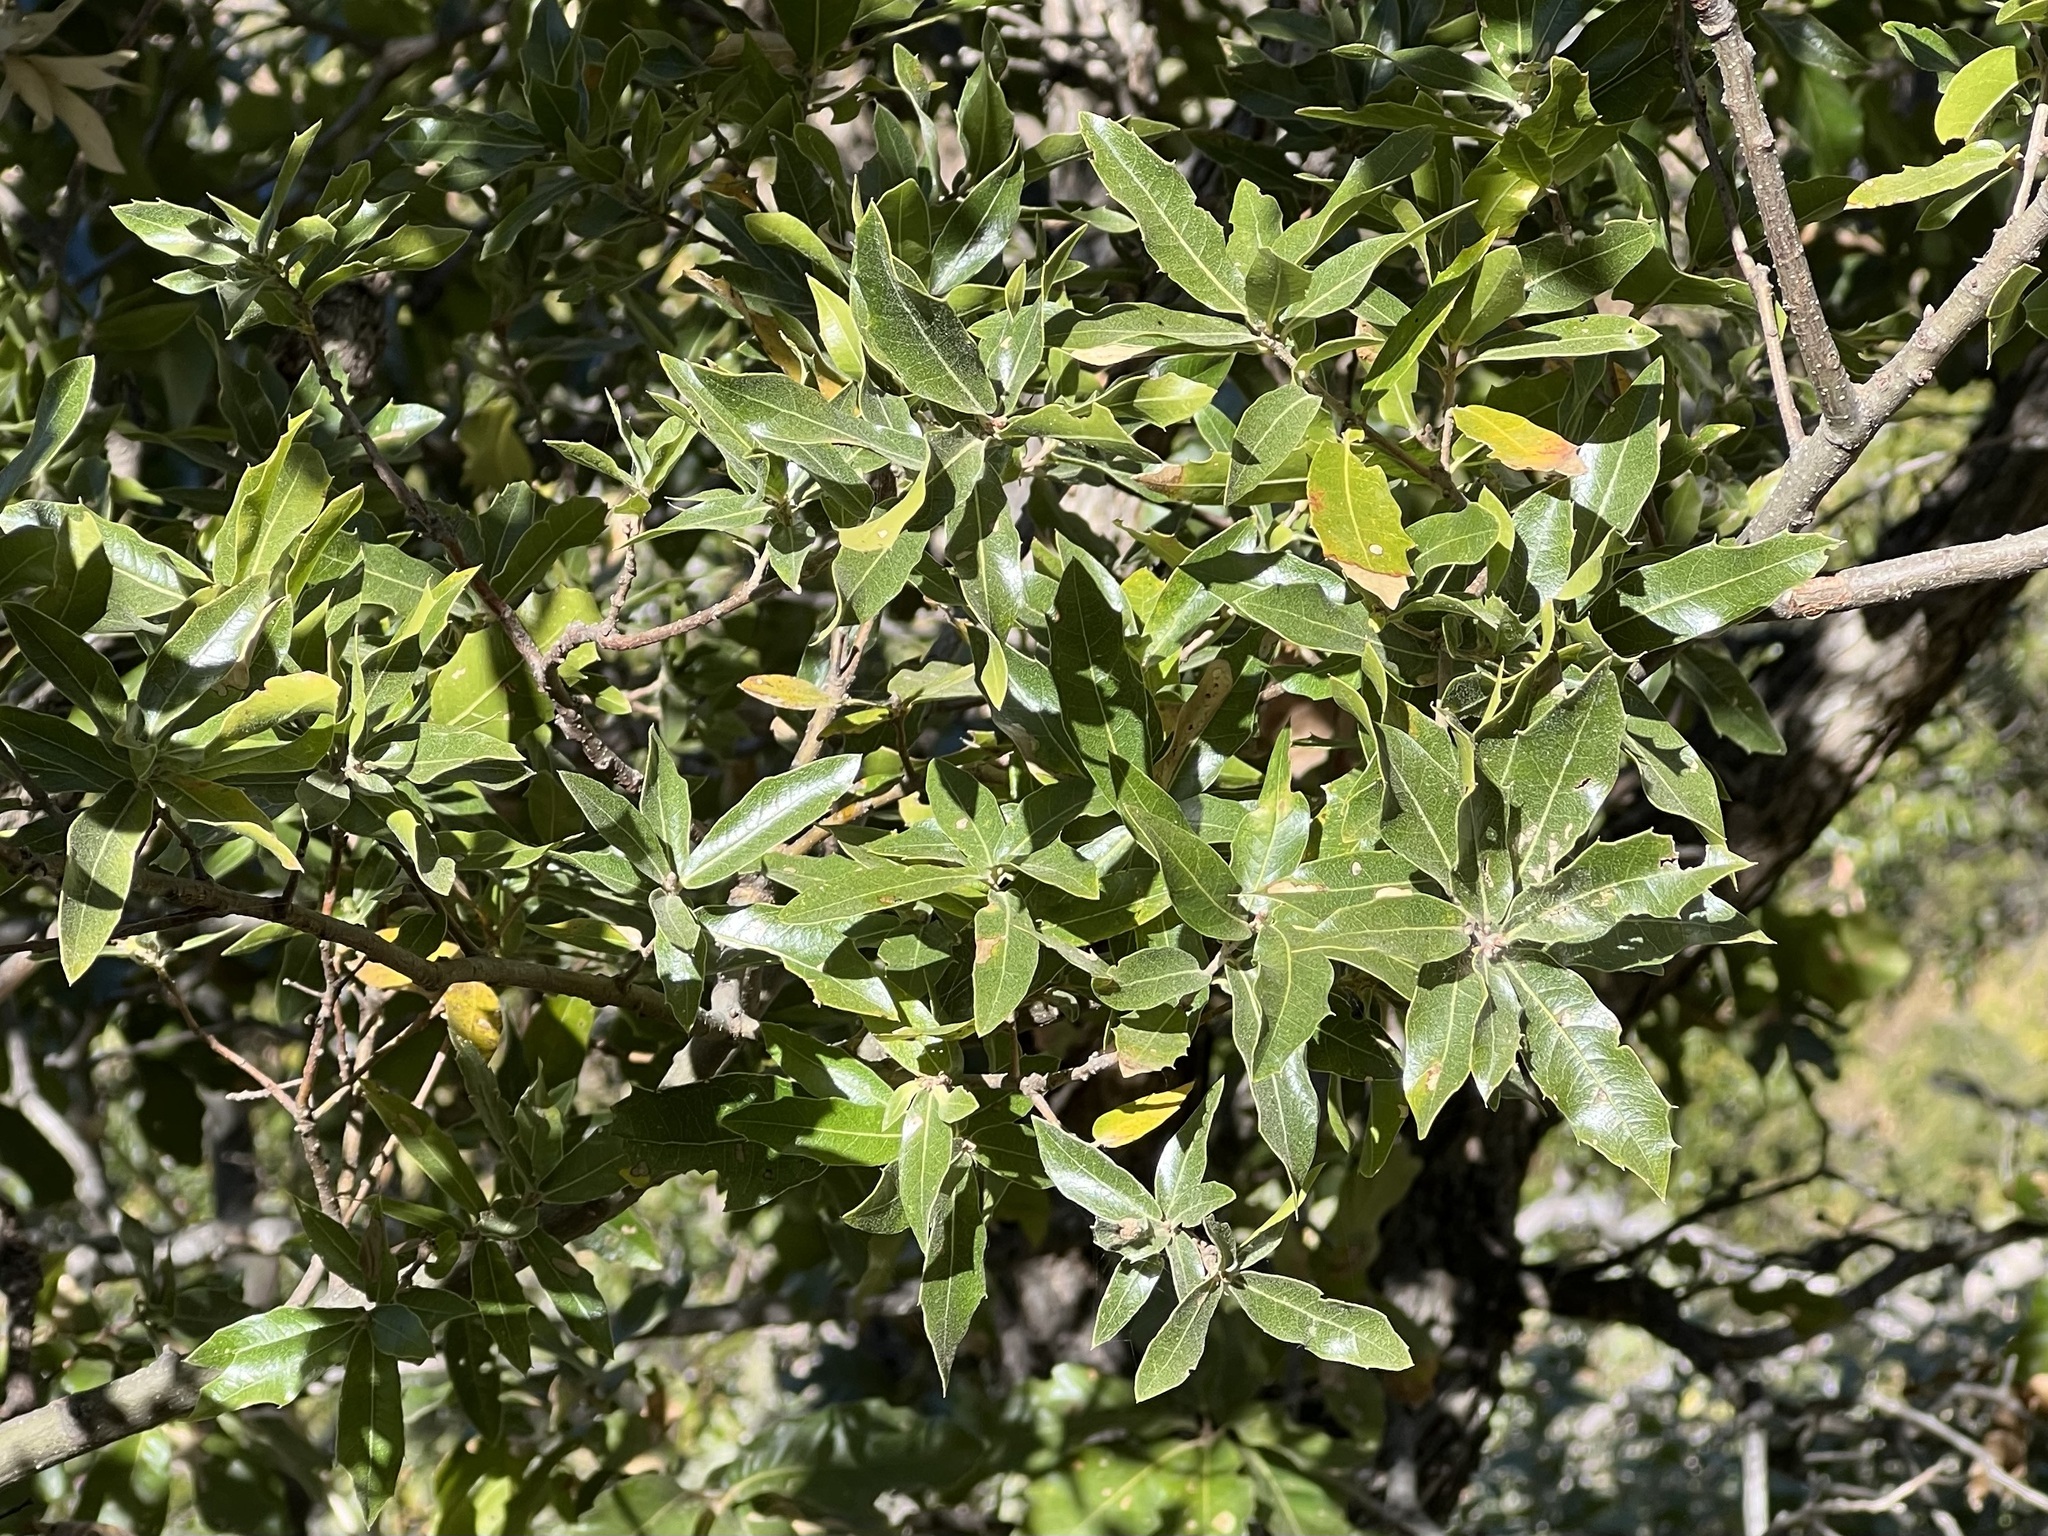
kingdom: Plantae
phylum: Tracheophyta
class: Magnoliopsida
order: Fagales
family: Fagaceae
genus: Quercus
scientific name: Quercus devia
